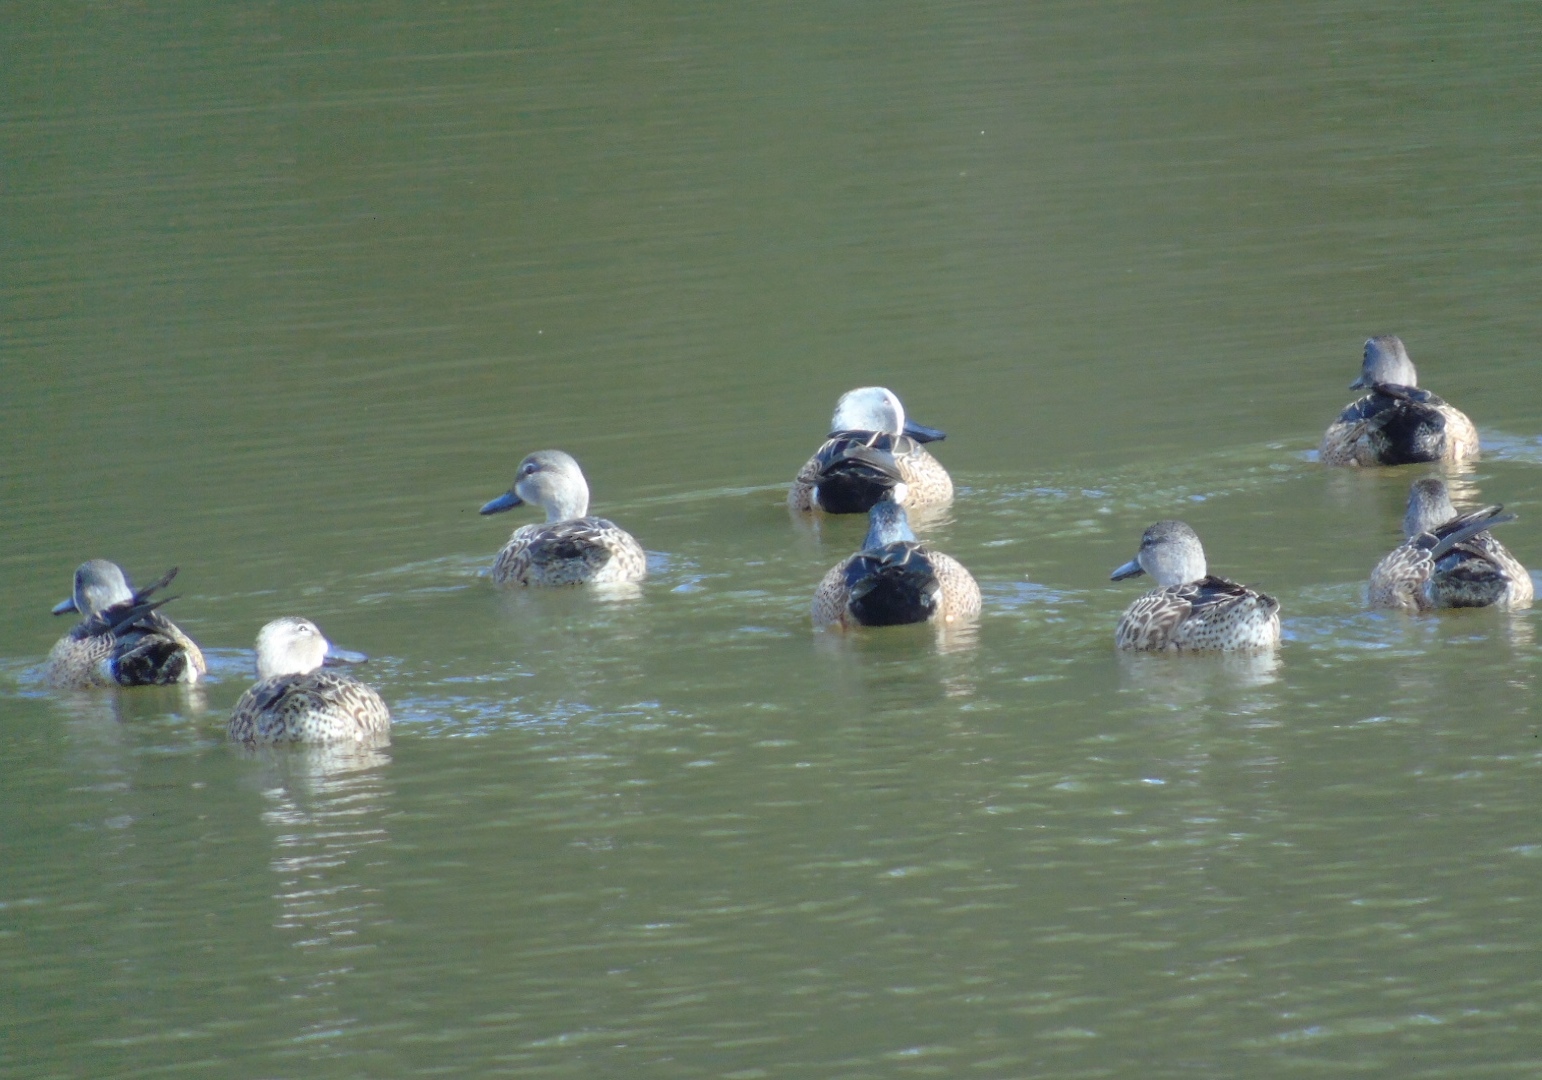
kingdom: Animalia
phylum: Chordata
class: Aves
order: Anseriformes
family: Anatidae
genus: Spatula
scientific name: Spatula discors
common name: Blue-winged teal
